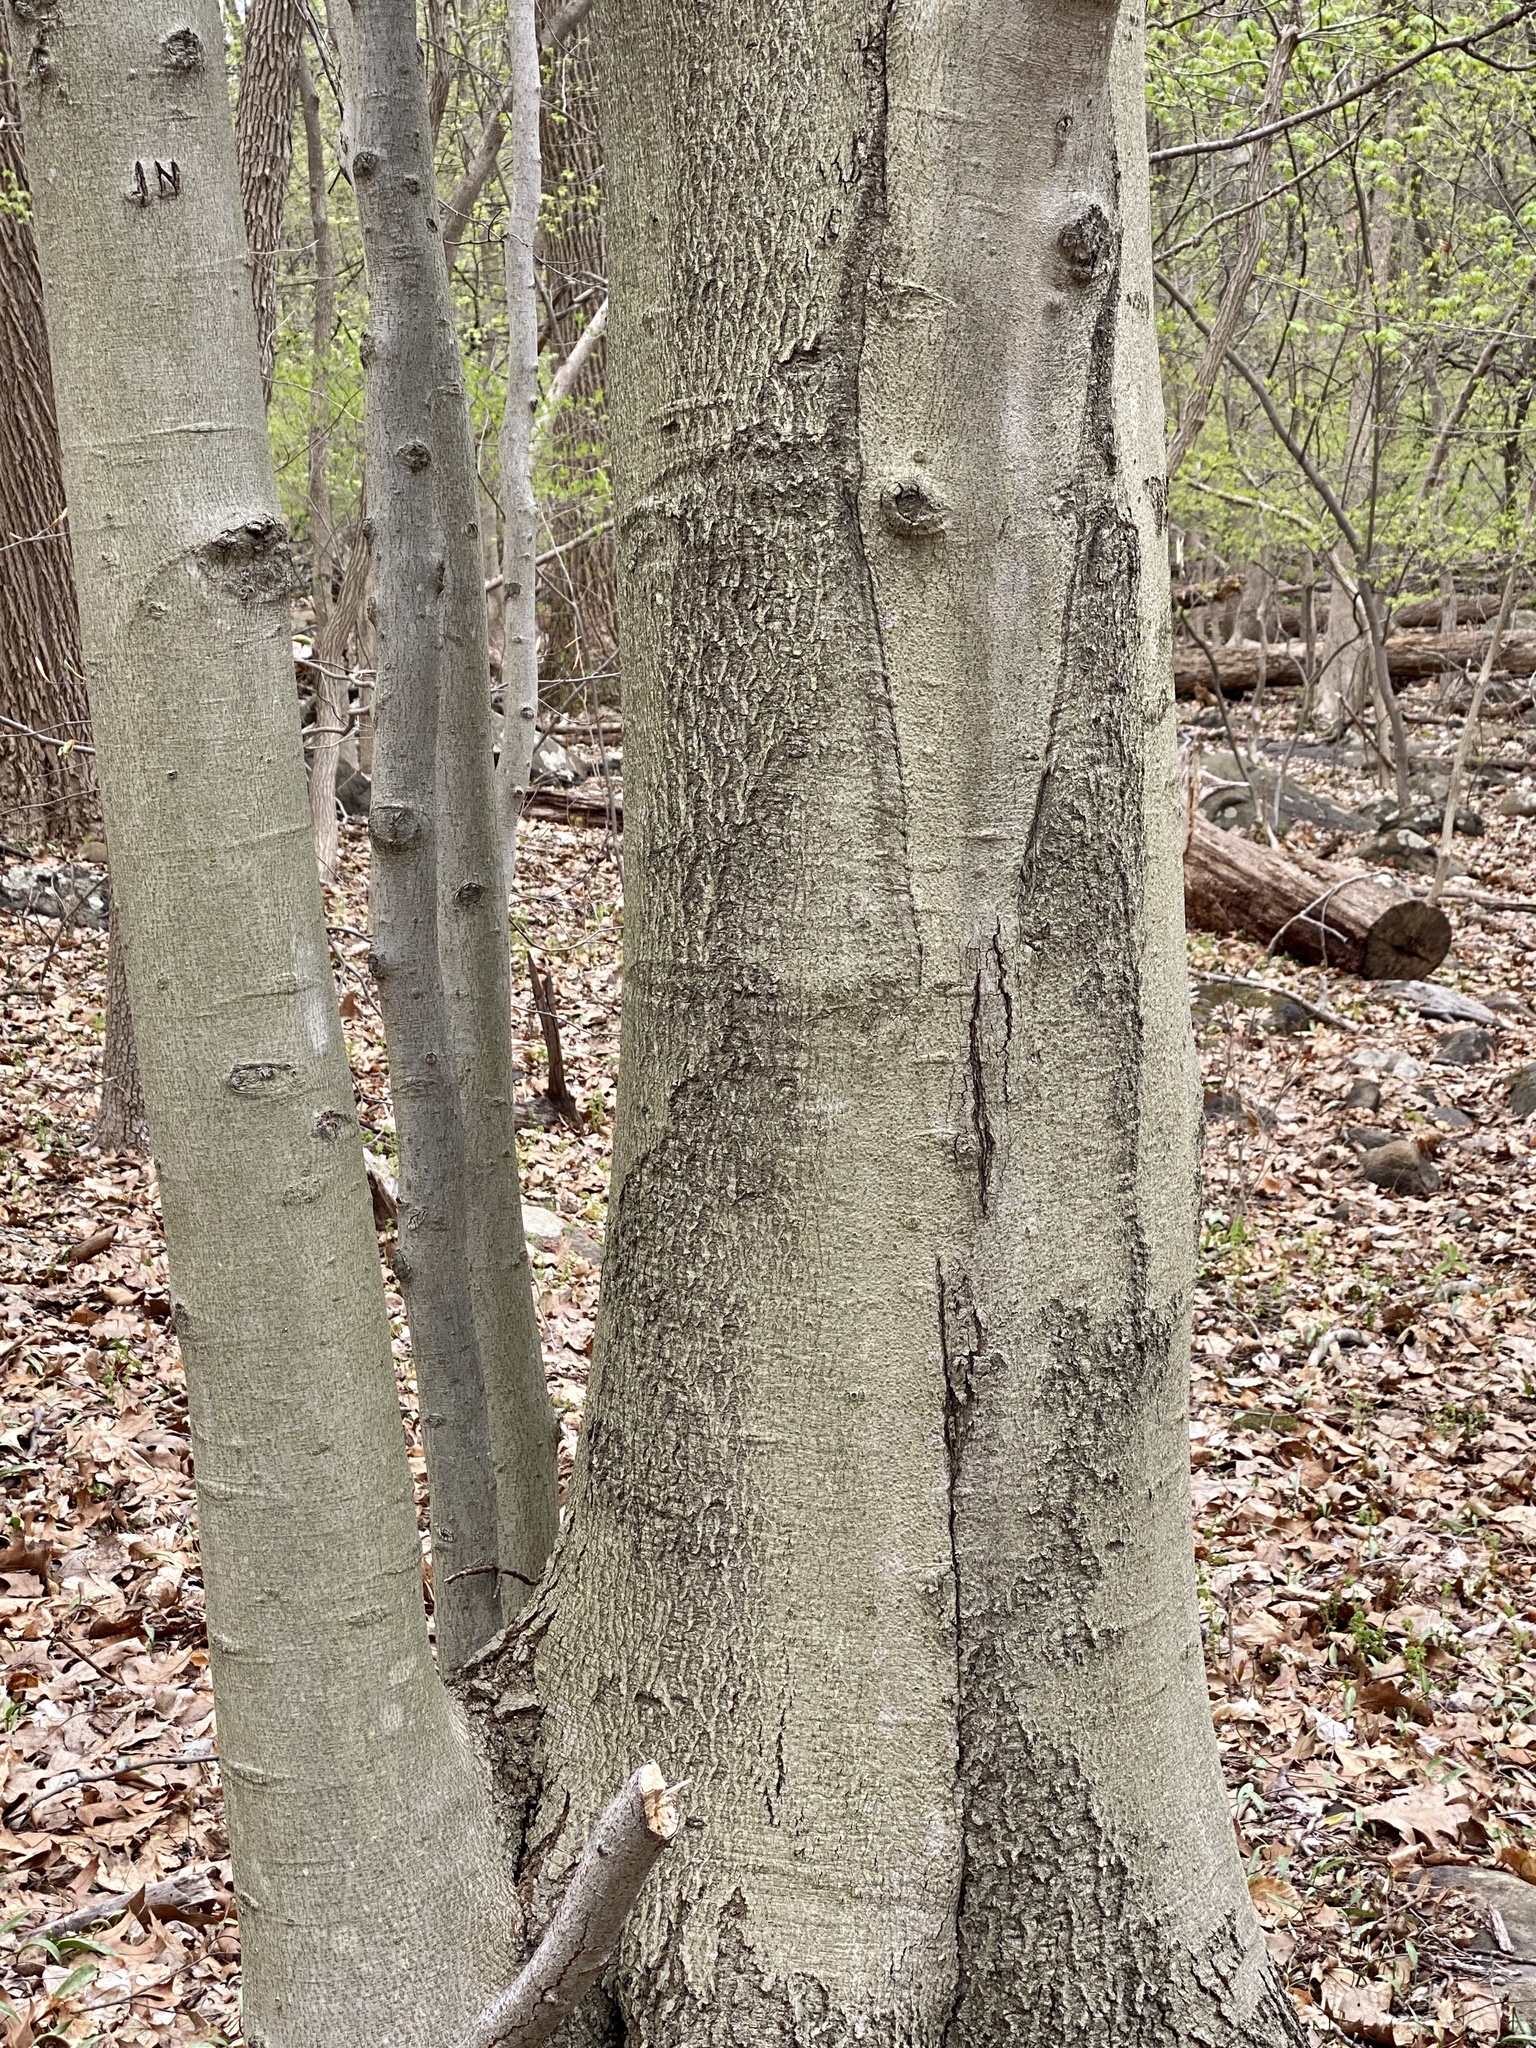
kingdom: Plantae
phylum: Tracheophyta
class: Magnoliopsida
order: Fagales
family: Fagaceae
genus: Fagus
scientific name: Fagus grandifolia
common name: American beech
